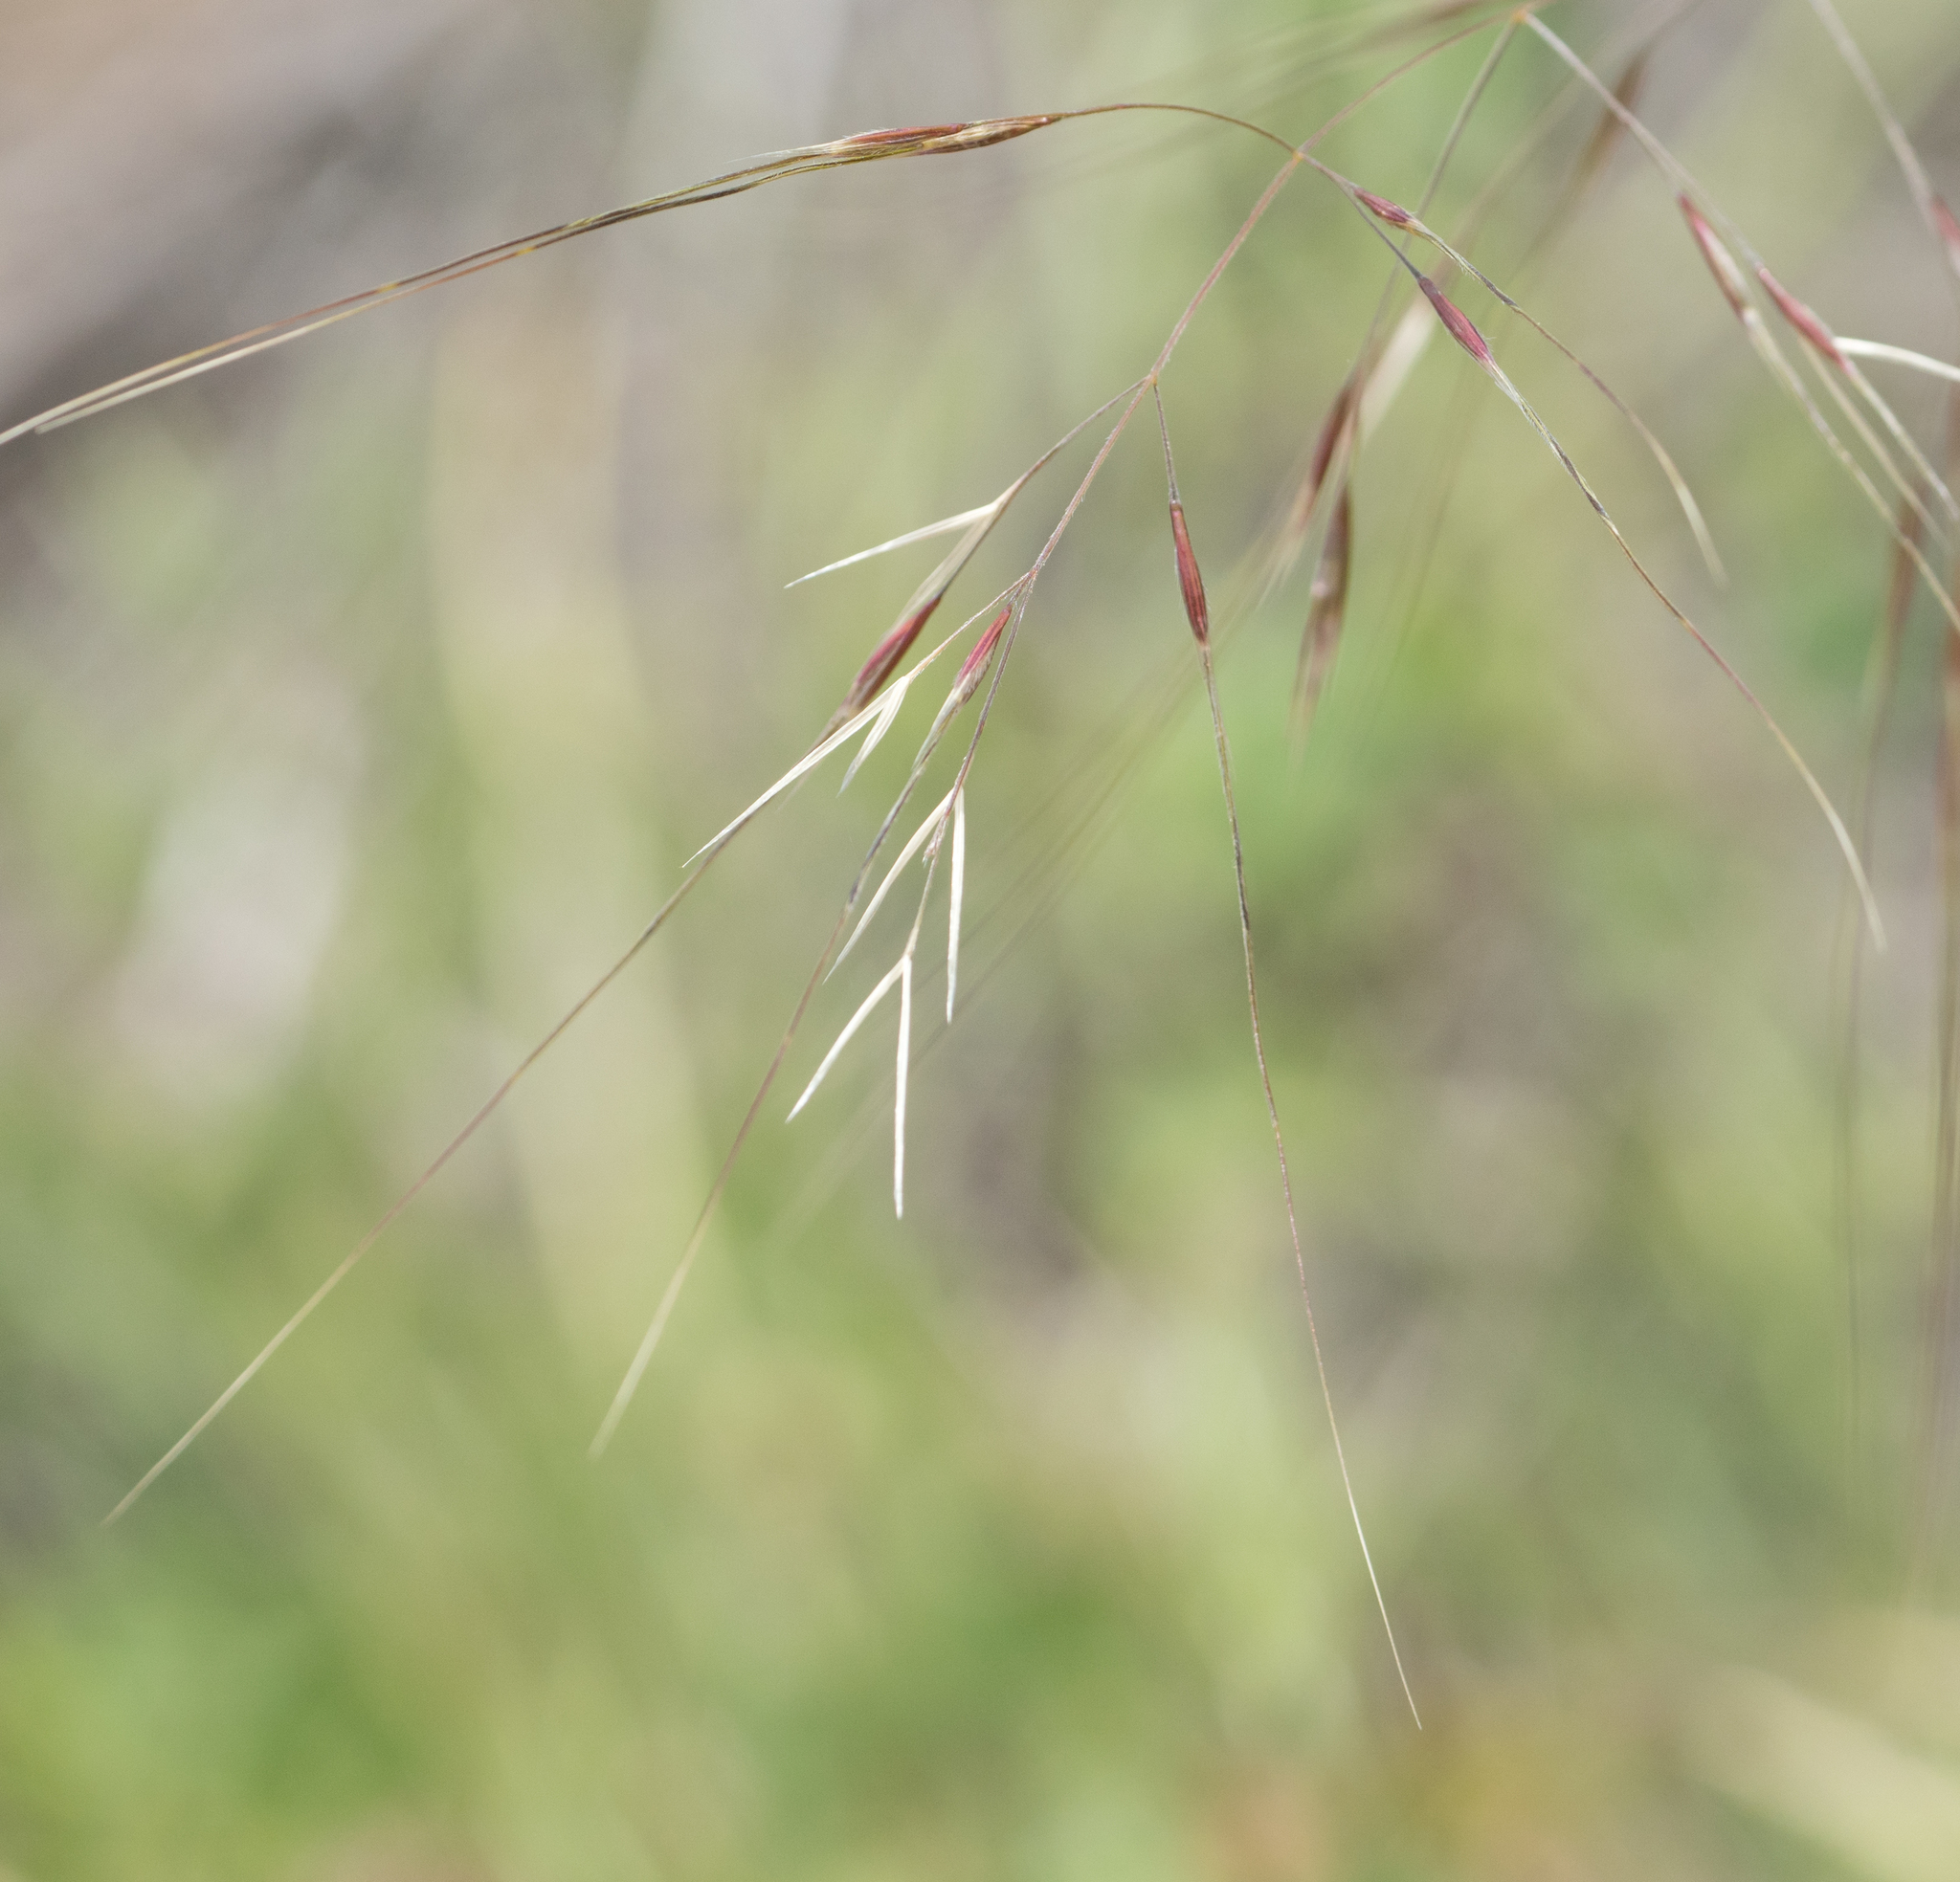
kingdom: Plantae
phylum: Tracheophyta
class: Liliopsida
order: Poales
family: Poaceae
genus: Nassella
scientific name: Nassella pulchra
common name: Purple needlegrass
